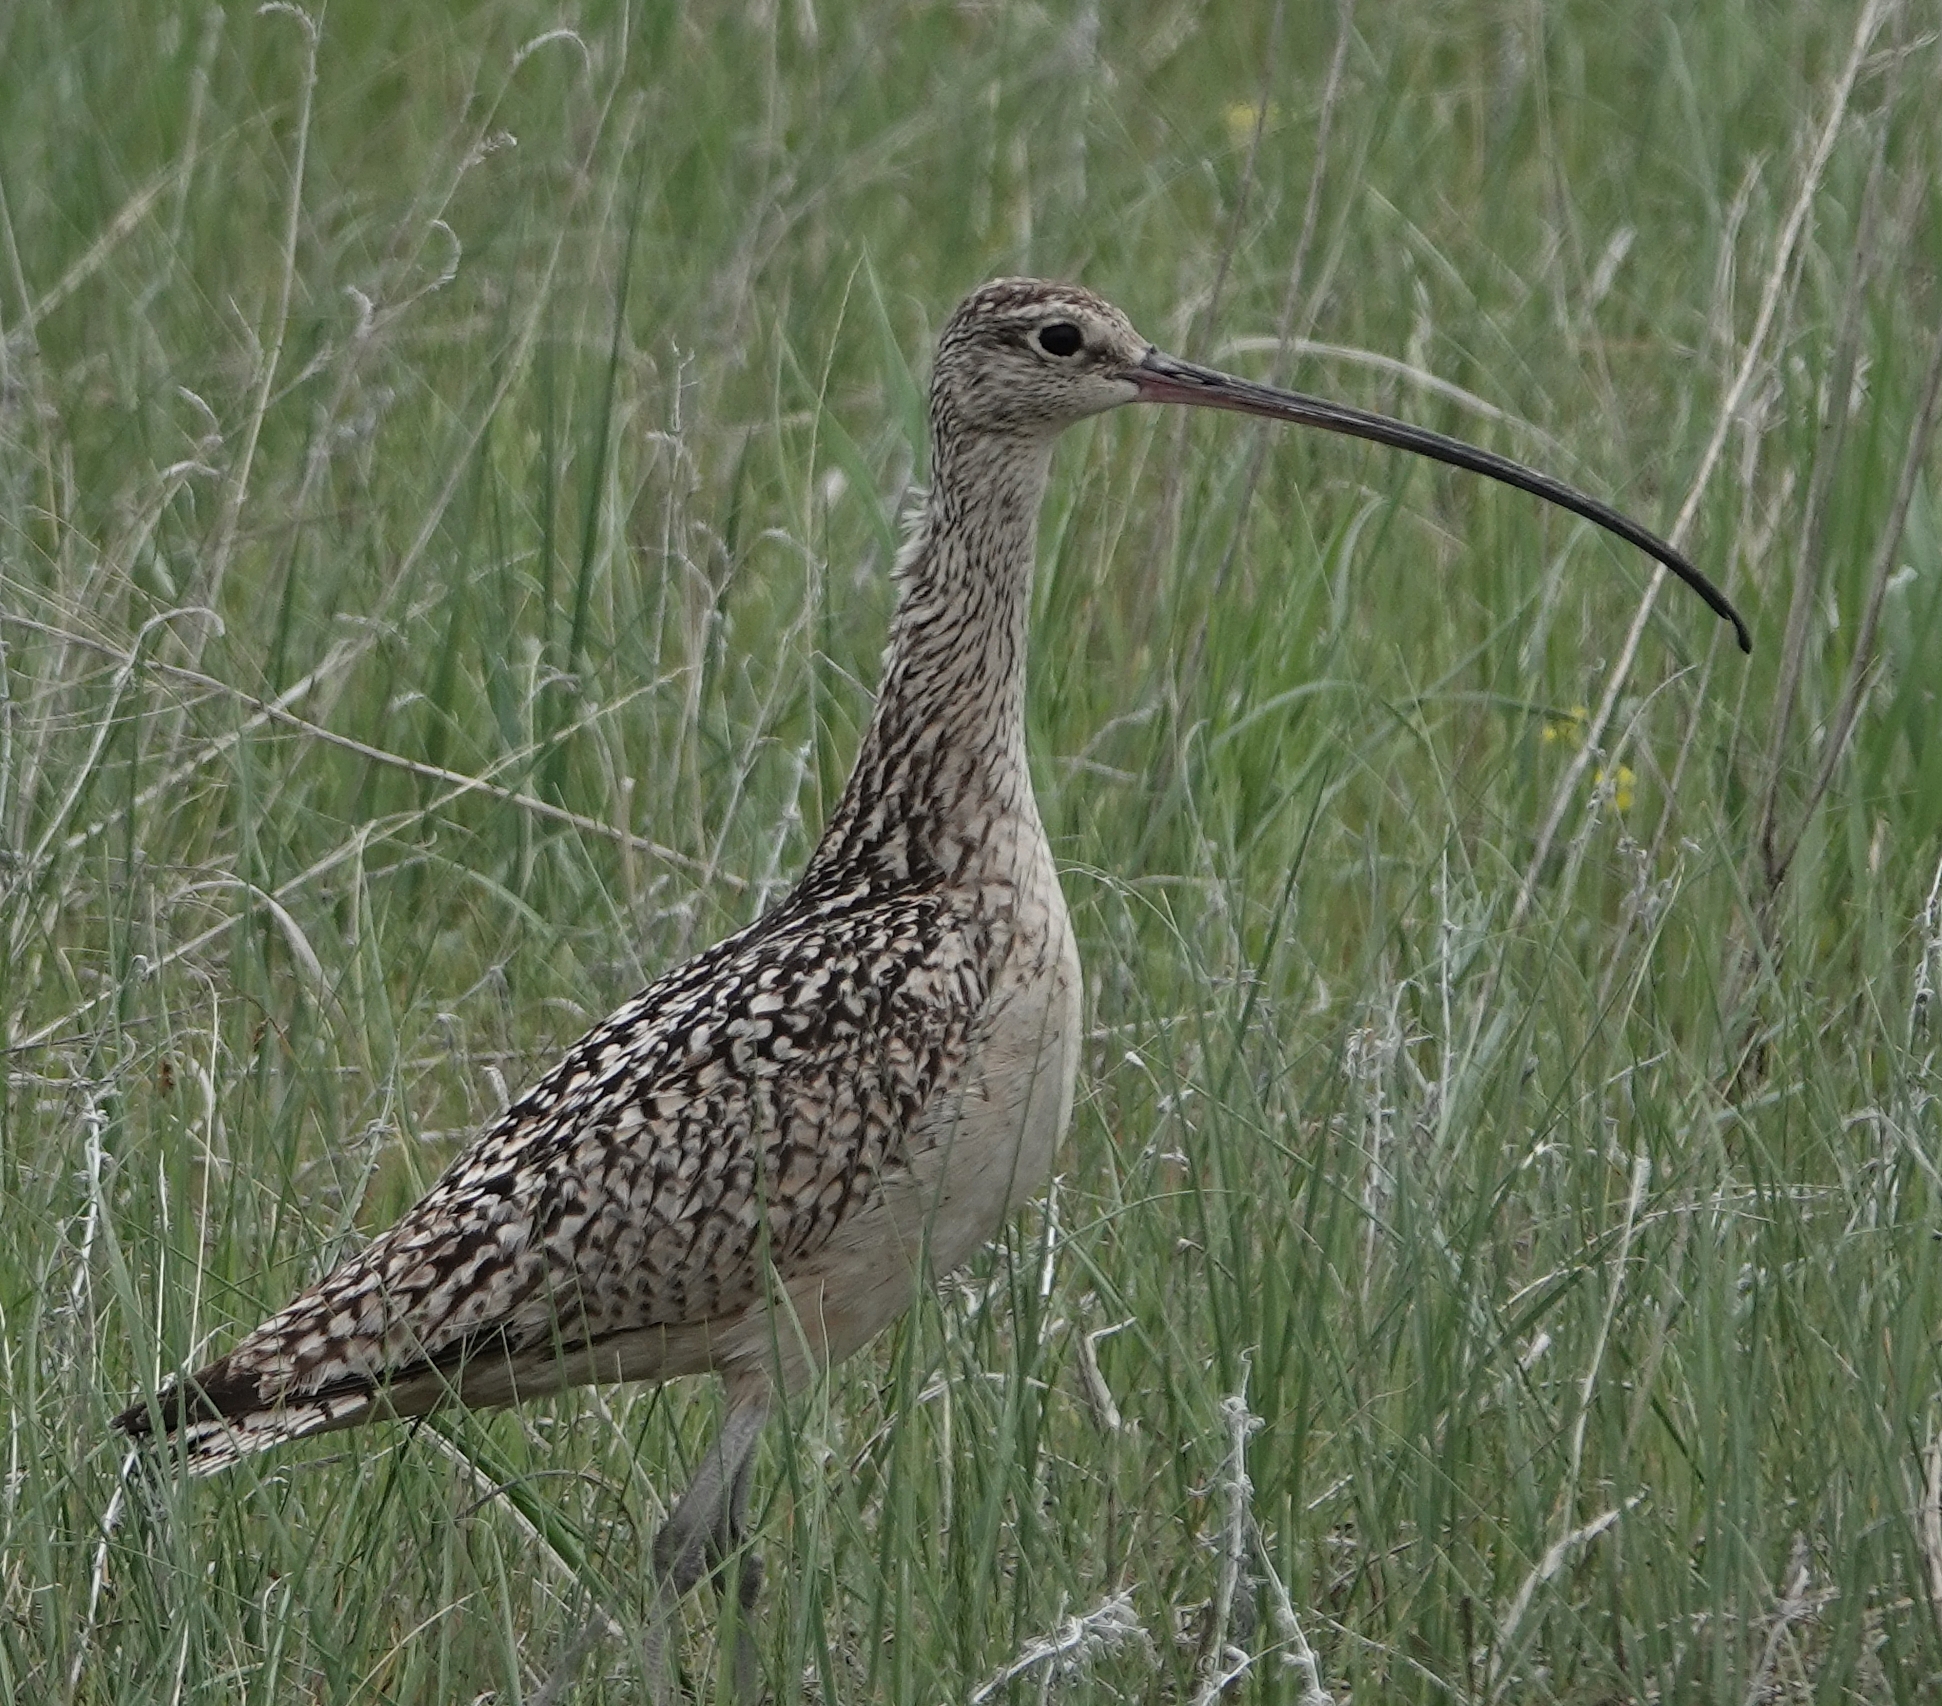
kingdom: Animalia
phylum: Chordata
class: Aves
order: Charadriiformes
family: Scolopacidae
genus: Numenius
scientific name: Numenius americanus
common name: Long-billed curlew
